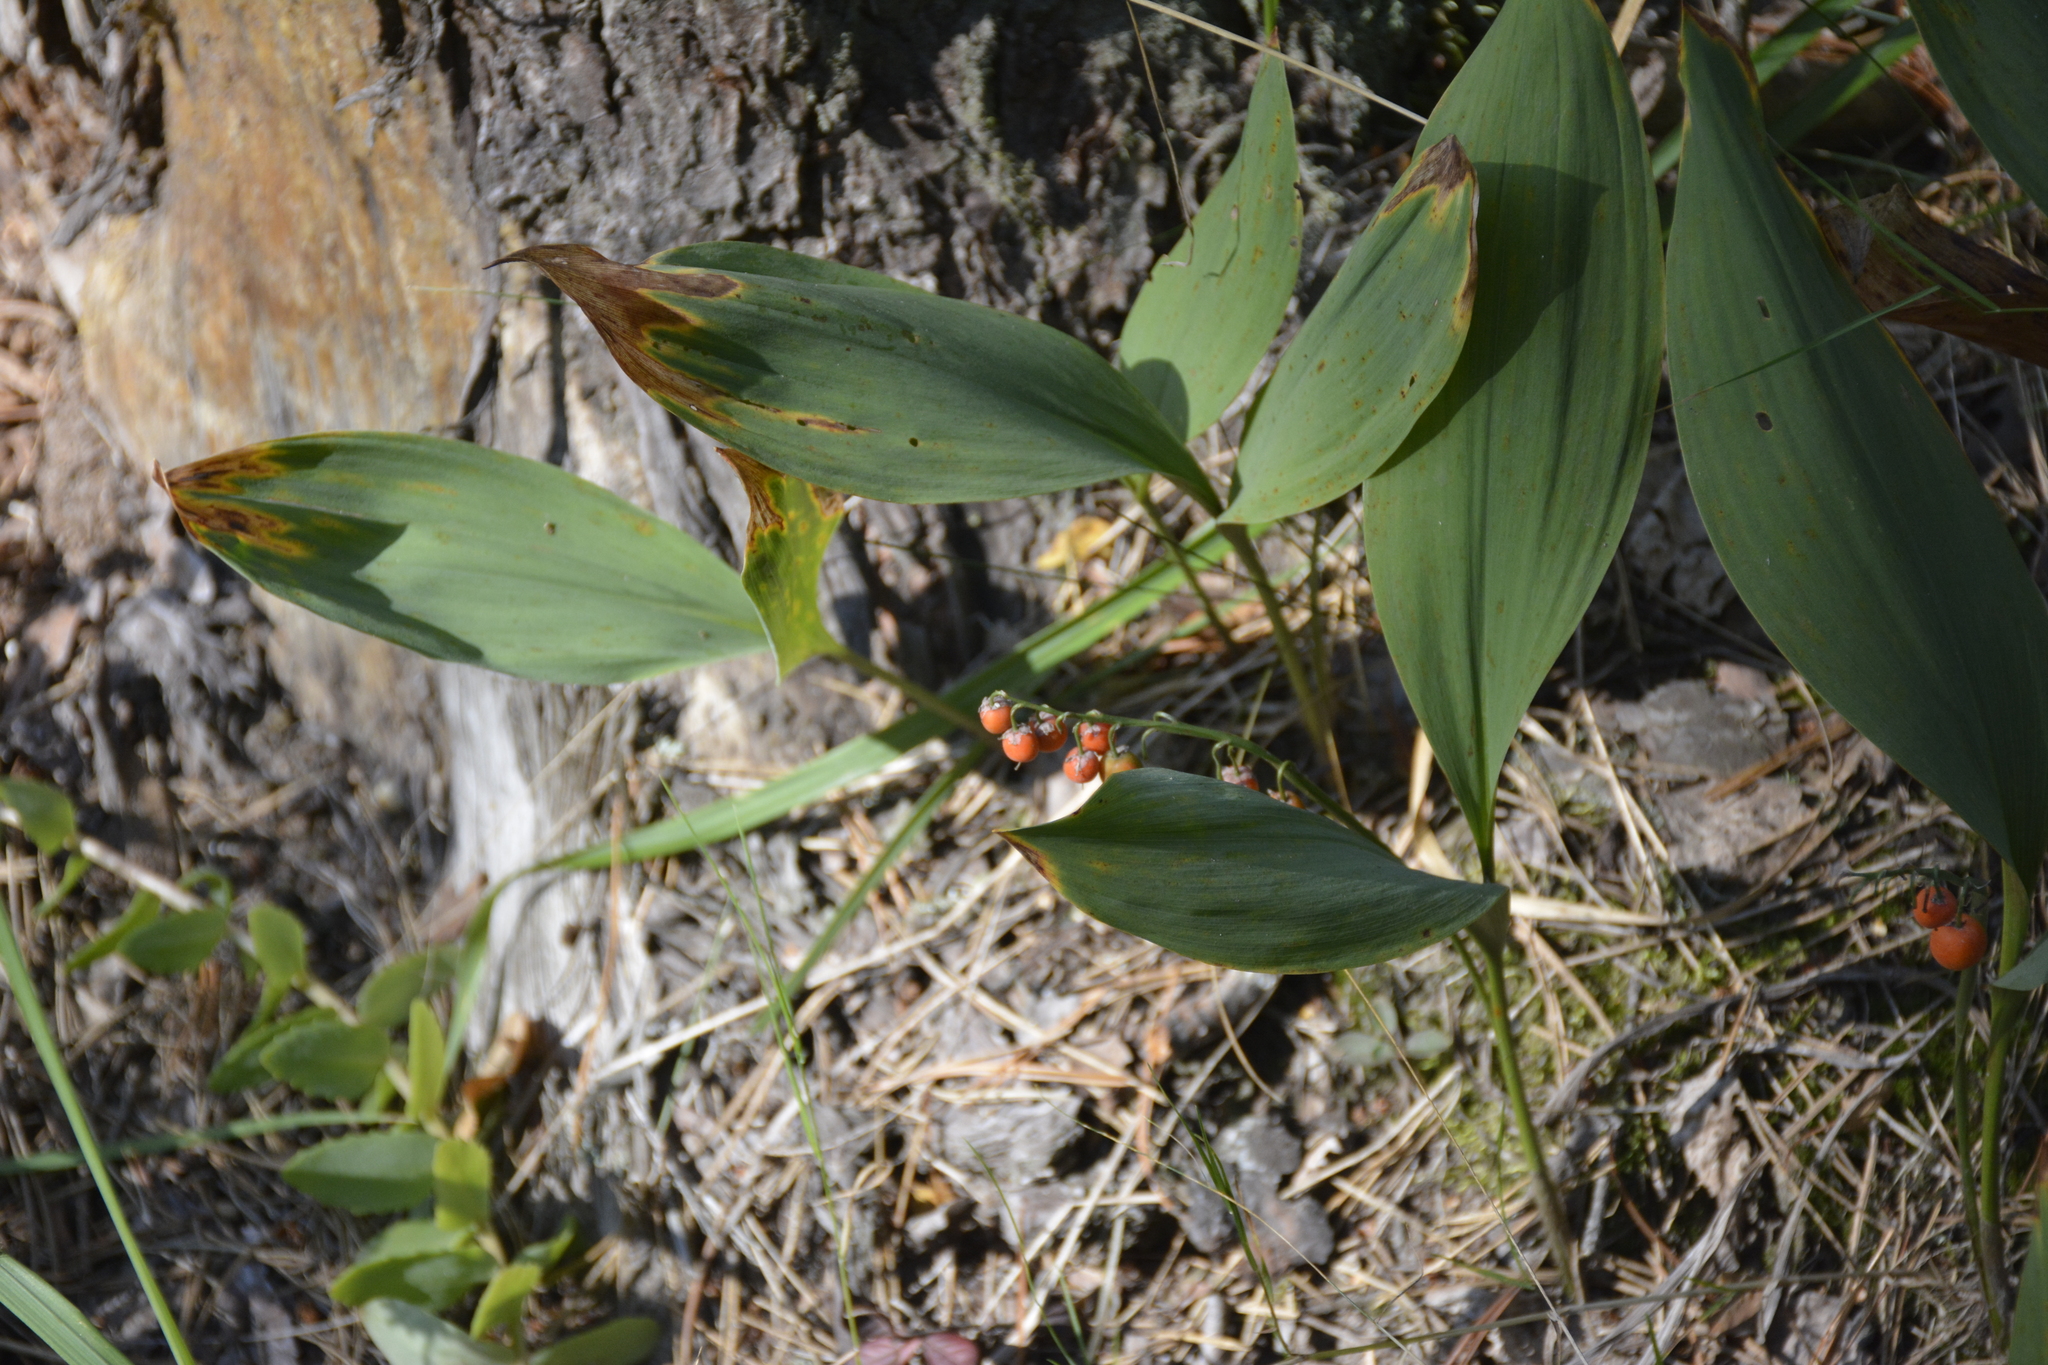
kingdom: Plantae
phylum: Tracheophyta
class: Liliopsida
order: Asparagales
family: Asparagaceae
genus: Convallaria
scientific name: Convallaria majalis
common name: Lily-of-the-valley
